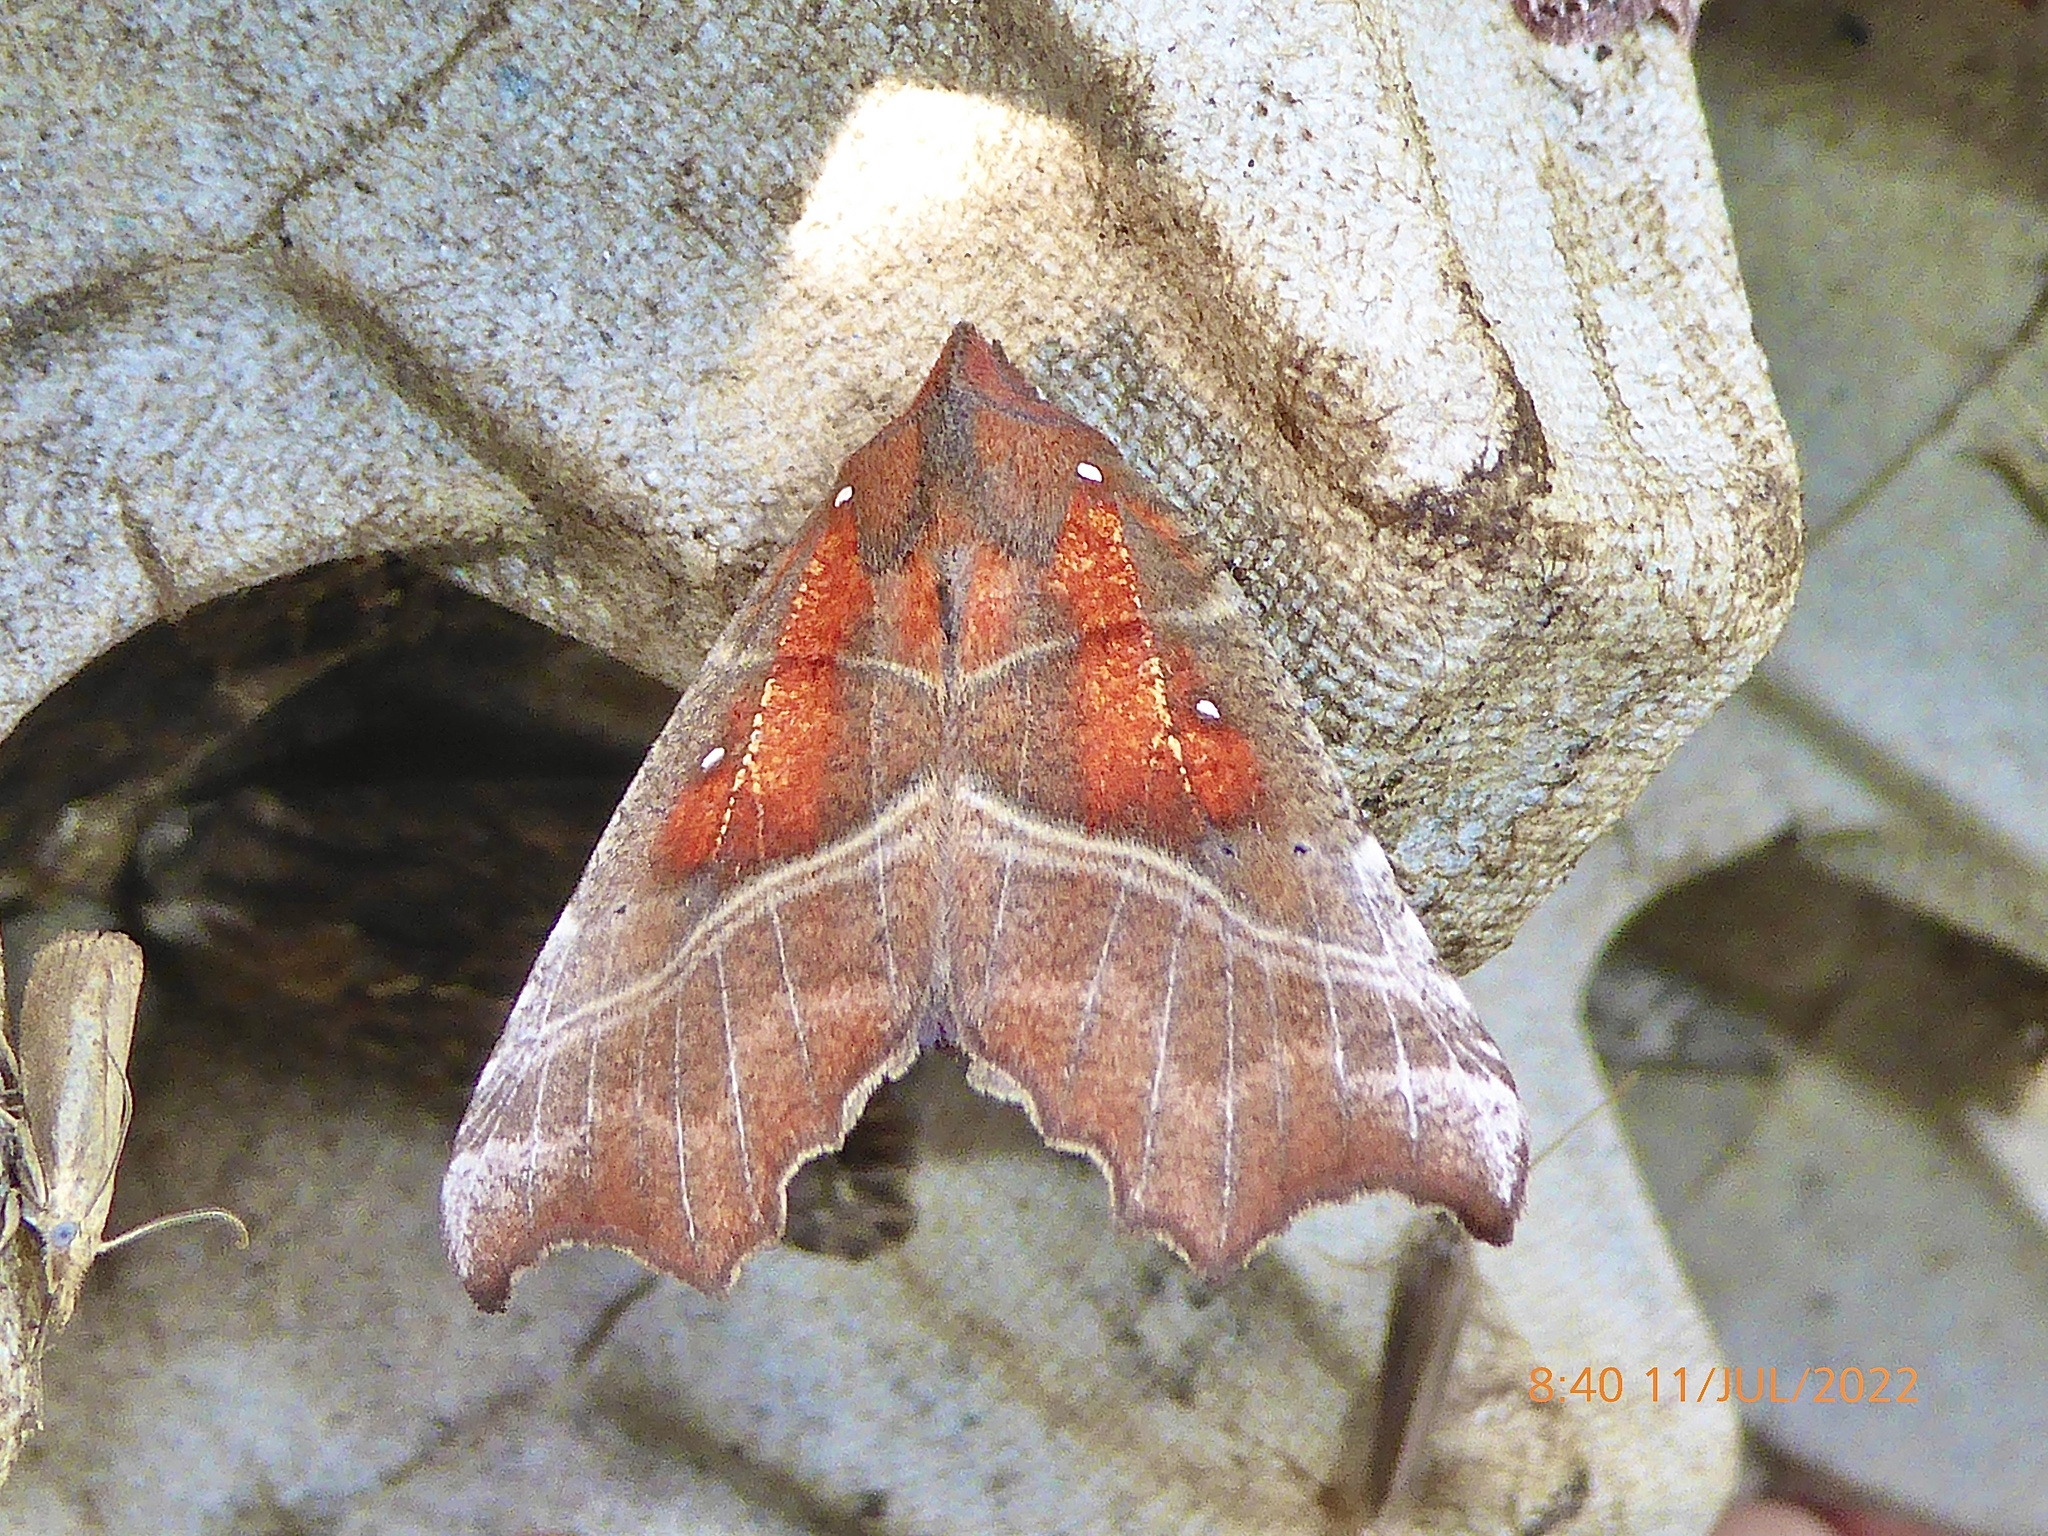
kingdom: Animalia
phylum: Arthropoda
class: Insecta
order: Lepidoptera
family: Erebidae
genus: Scoliopteryx
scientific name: Scoliopteryx libatrix
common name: Herald
